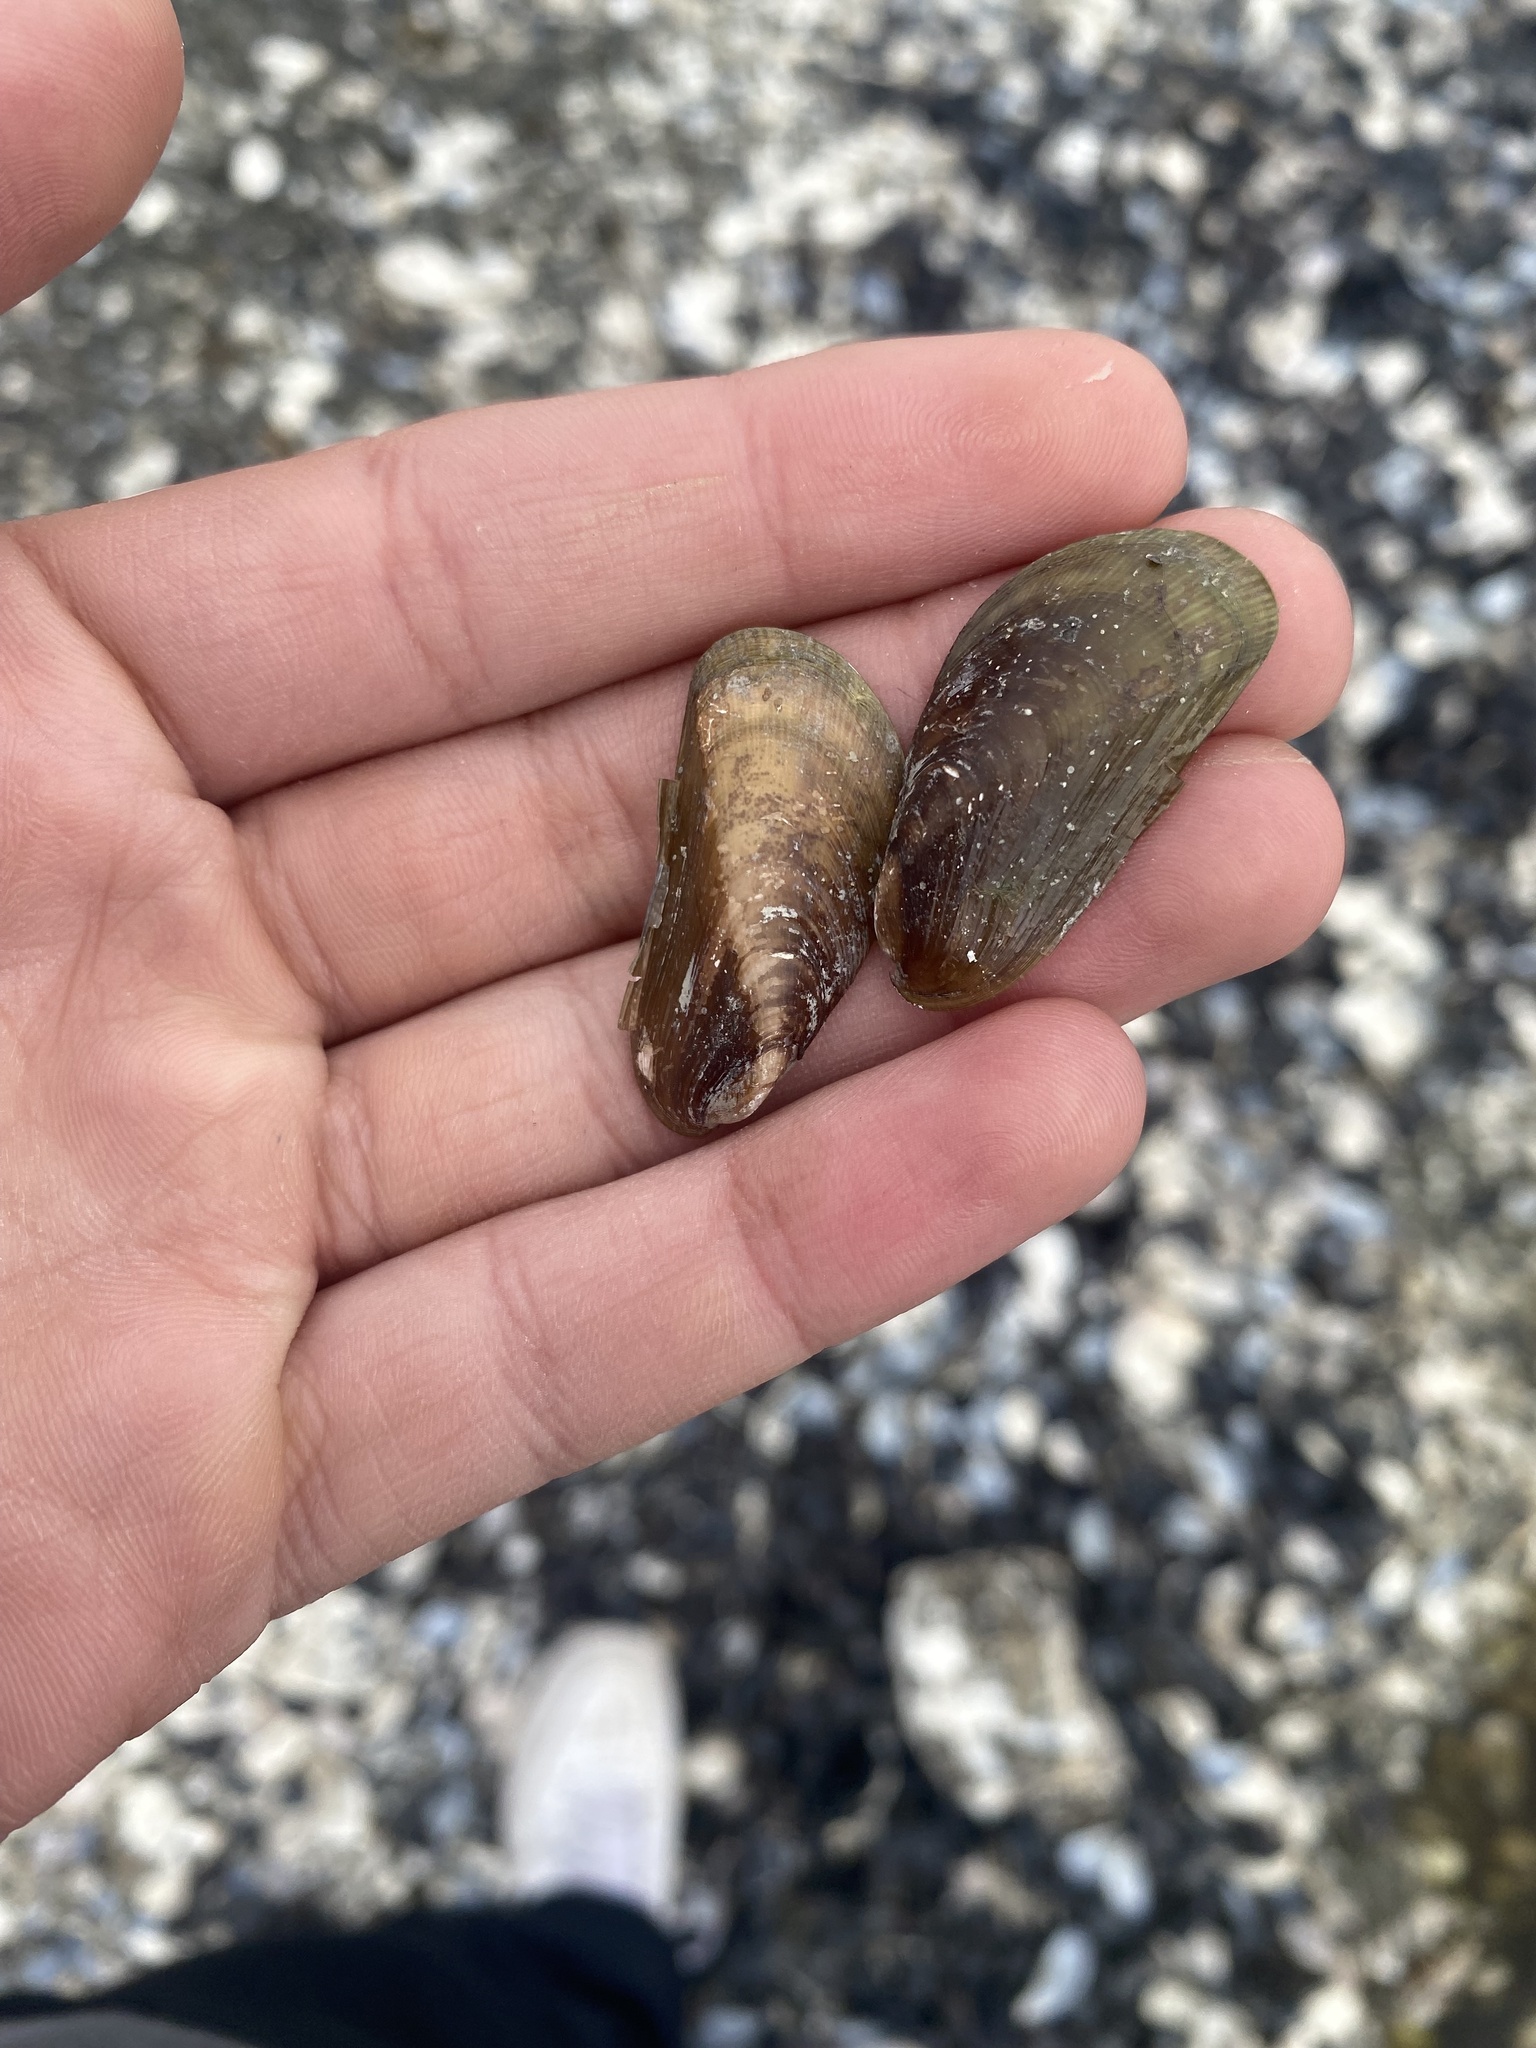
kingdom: Animalia
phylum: Mollusca
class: Bivalvia
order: Mytilida
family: Mytilidae
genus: Arcuatula
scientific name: Arcuatula senhousia
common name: Asian mussel
